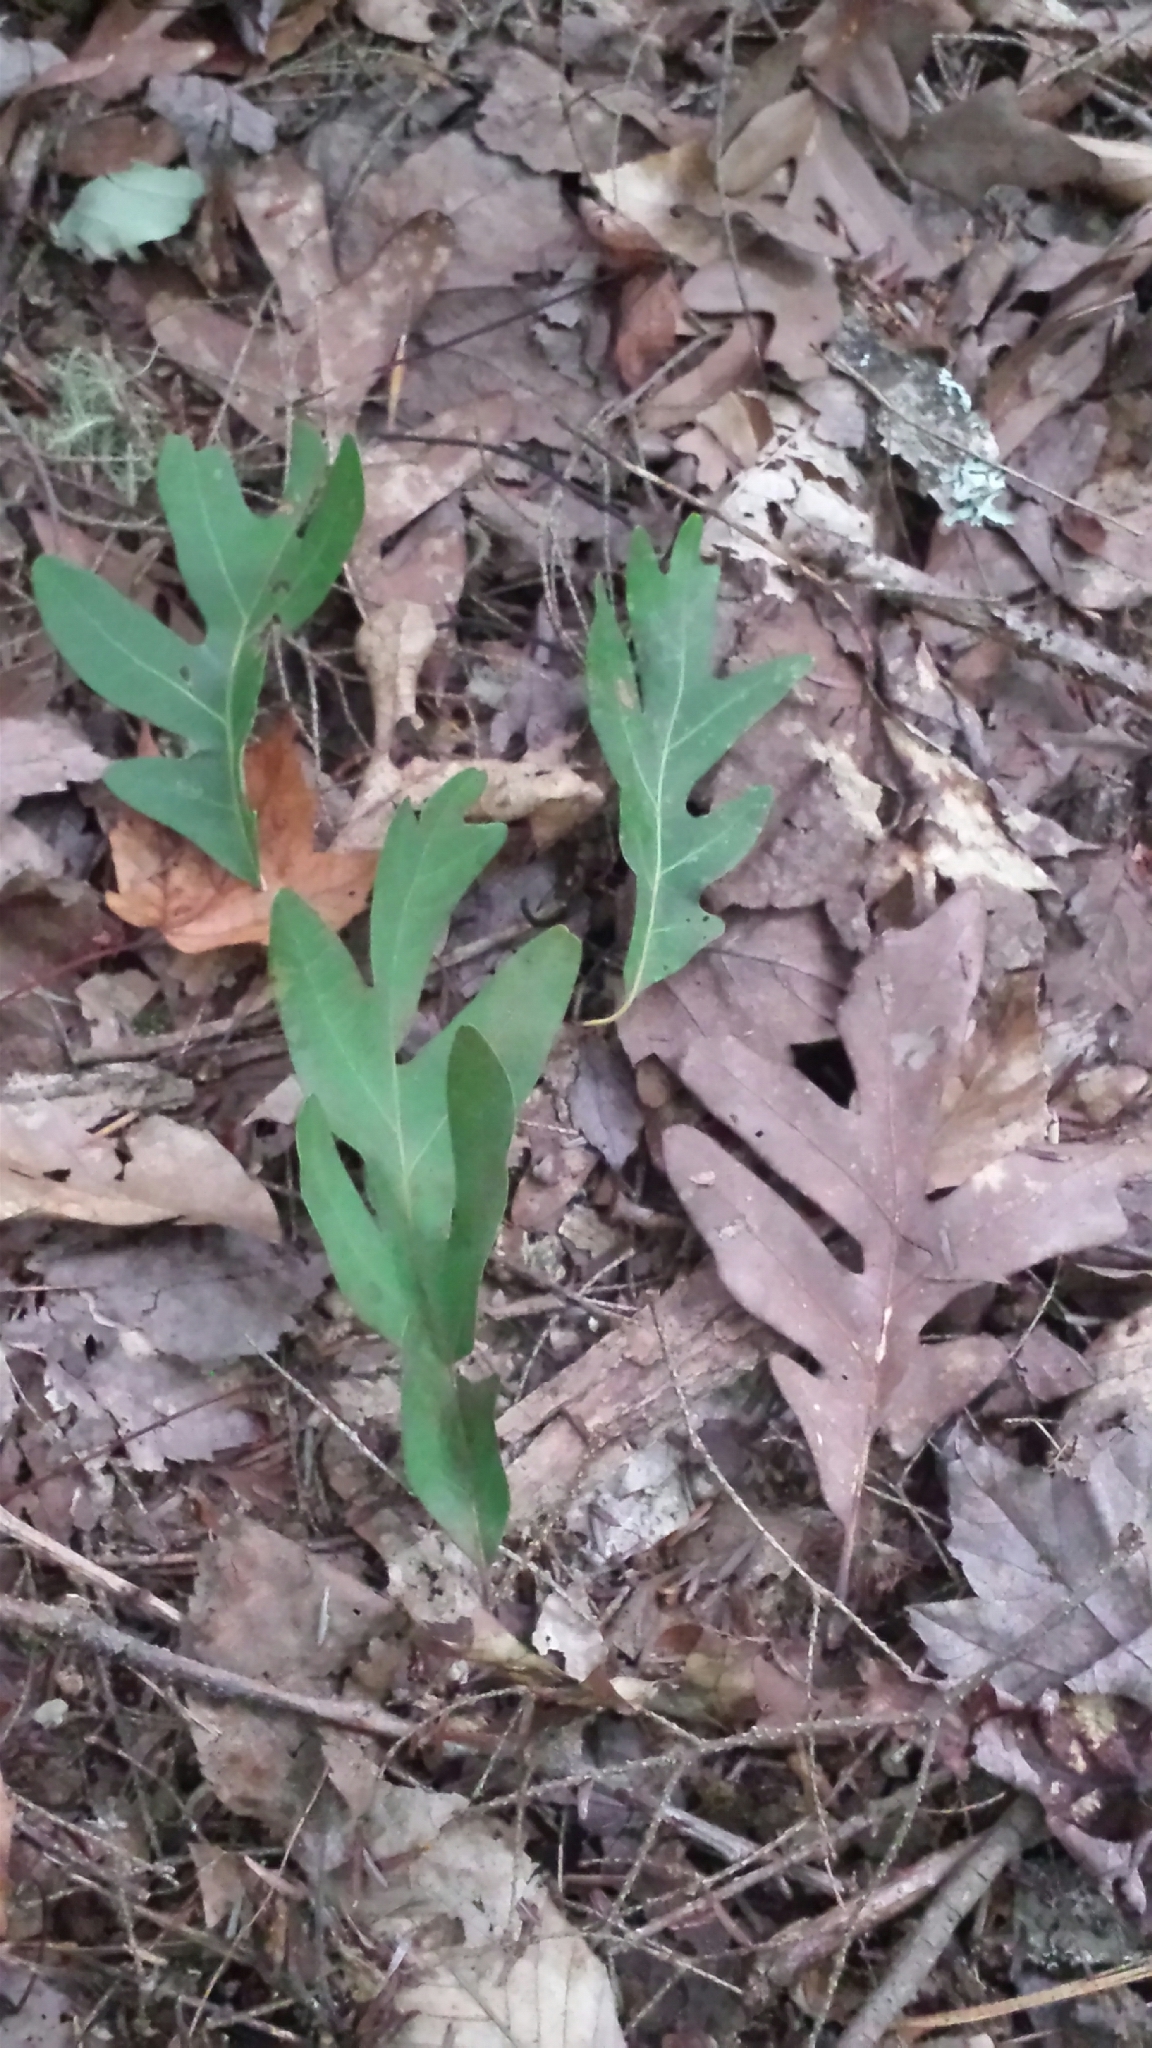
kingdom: Plantae
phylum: Tracheophyta
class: Magnoliopsida
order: Fagales
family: Fagaceae
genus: Quercus
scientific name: Quercus alba
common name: White oak
